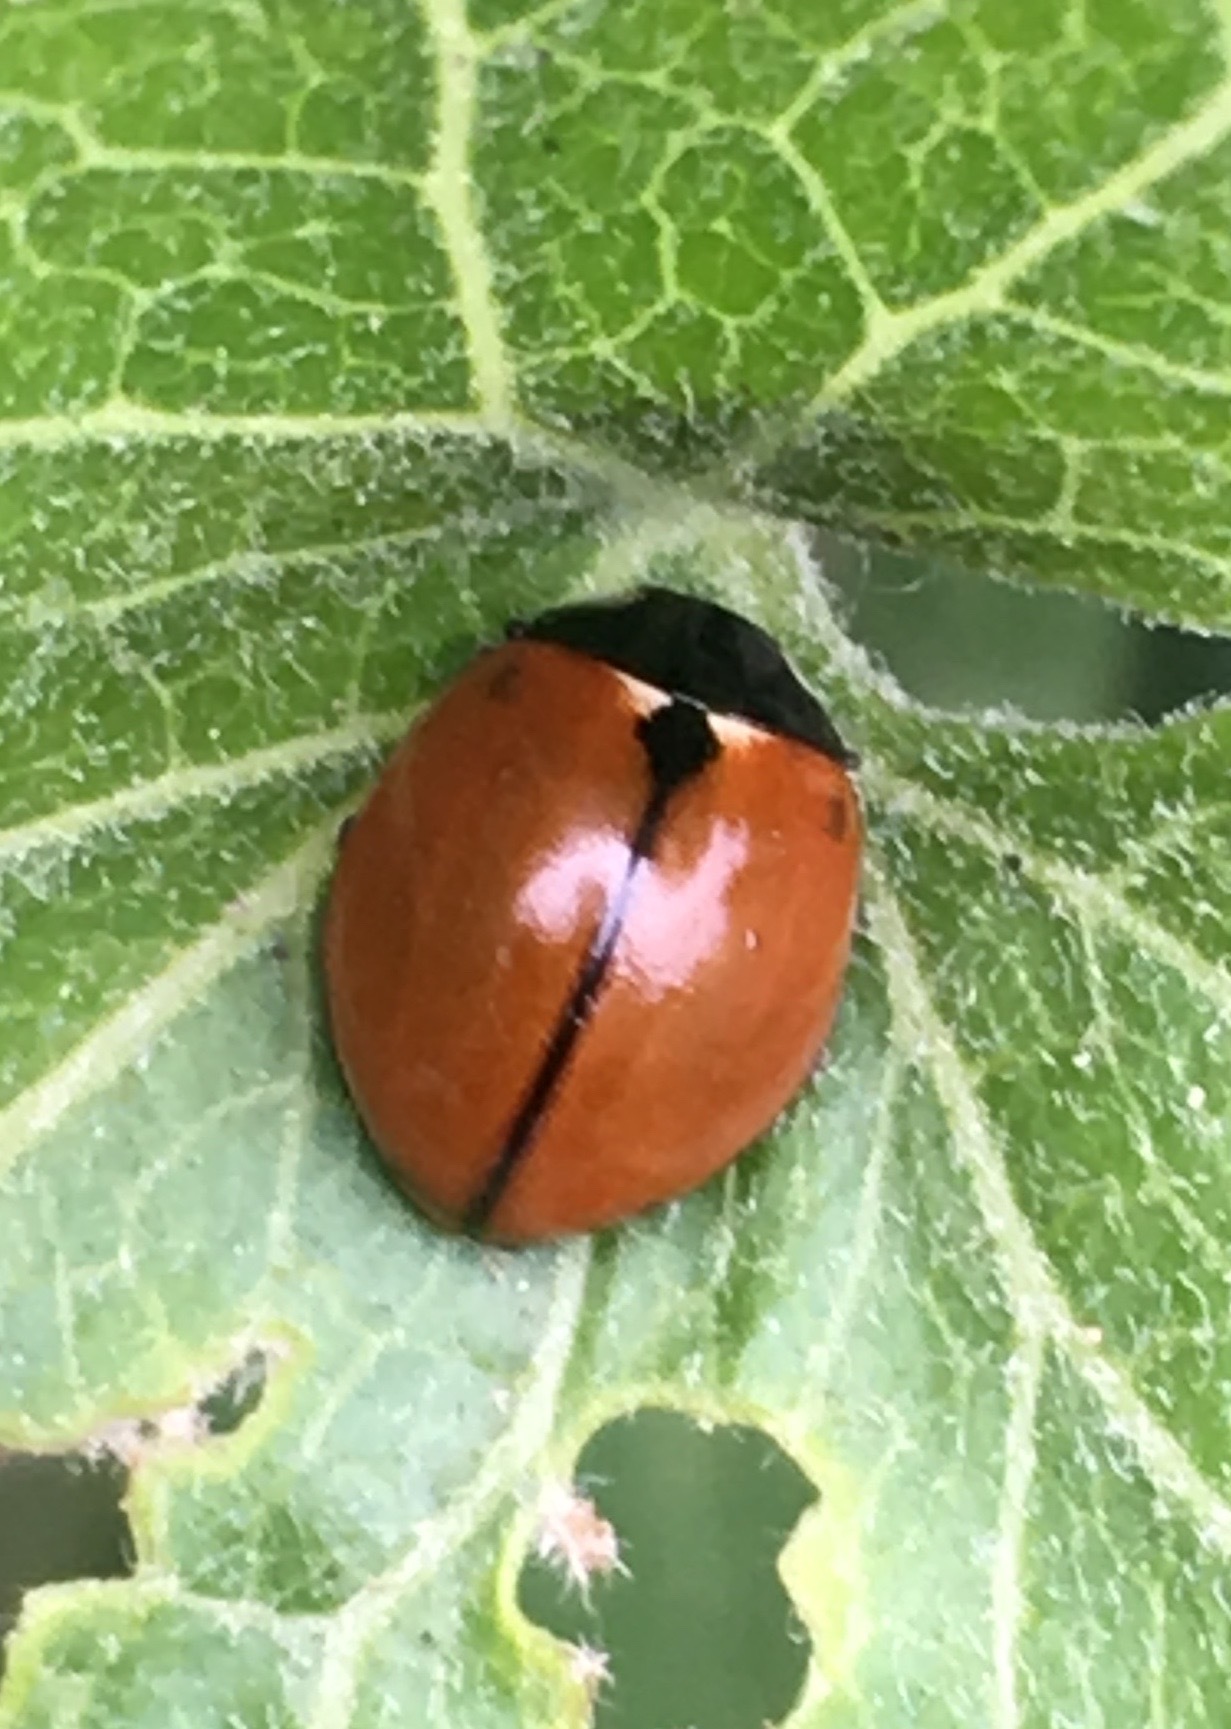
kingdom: Animalia
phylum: Arthropoda
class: Insecta
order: Coleoptera
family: Coccinellidae
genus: Coccinella
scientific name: Coccinella californica
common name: Lady beetle
